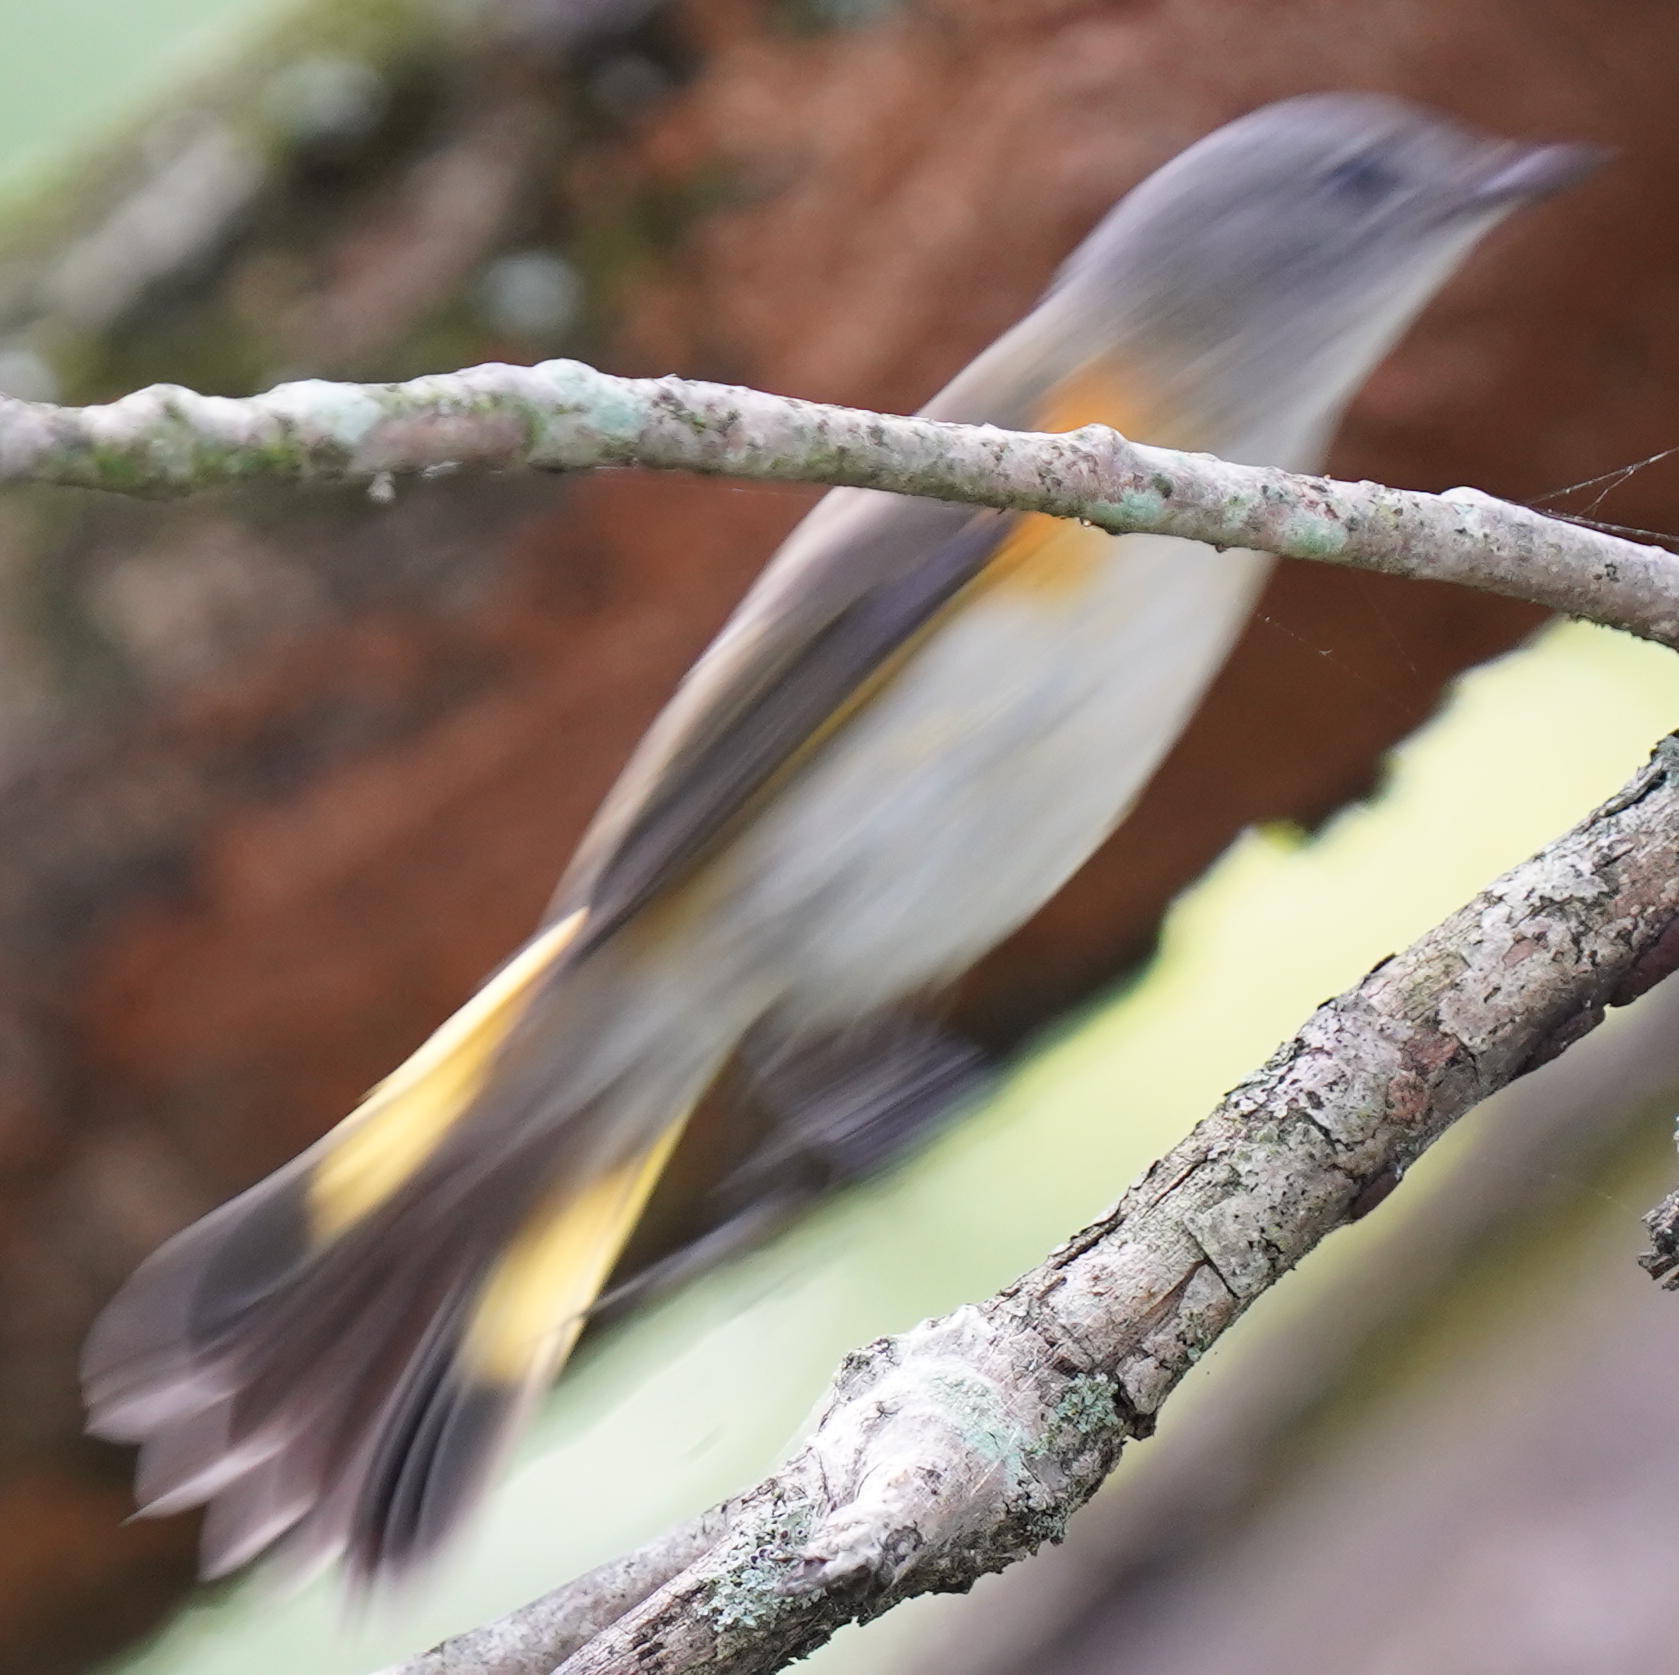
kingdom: Animalia
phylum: Chordata
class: Aves
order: Passeriformes
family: Parulidae
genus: Setophaga
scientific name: Setophaga ruticilla
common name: American redstart
